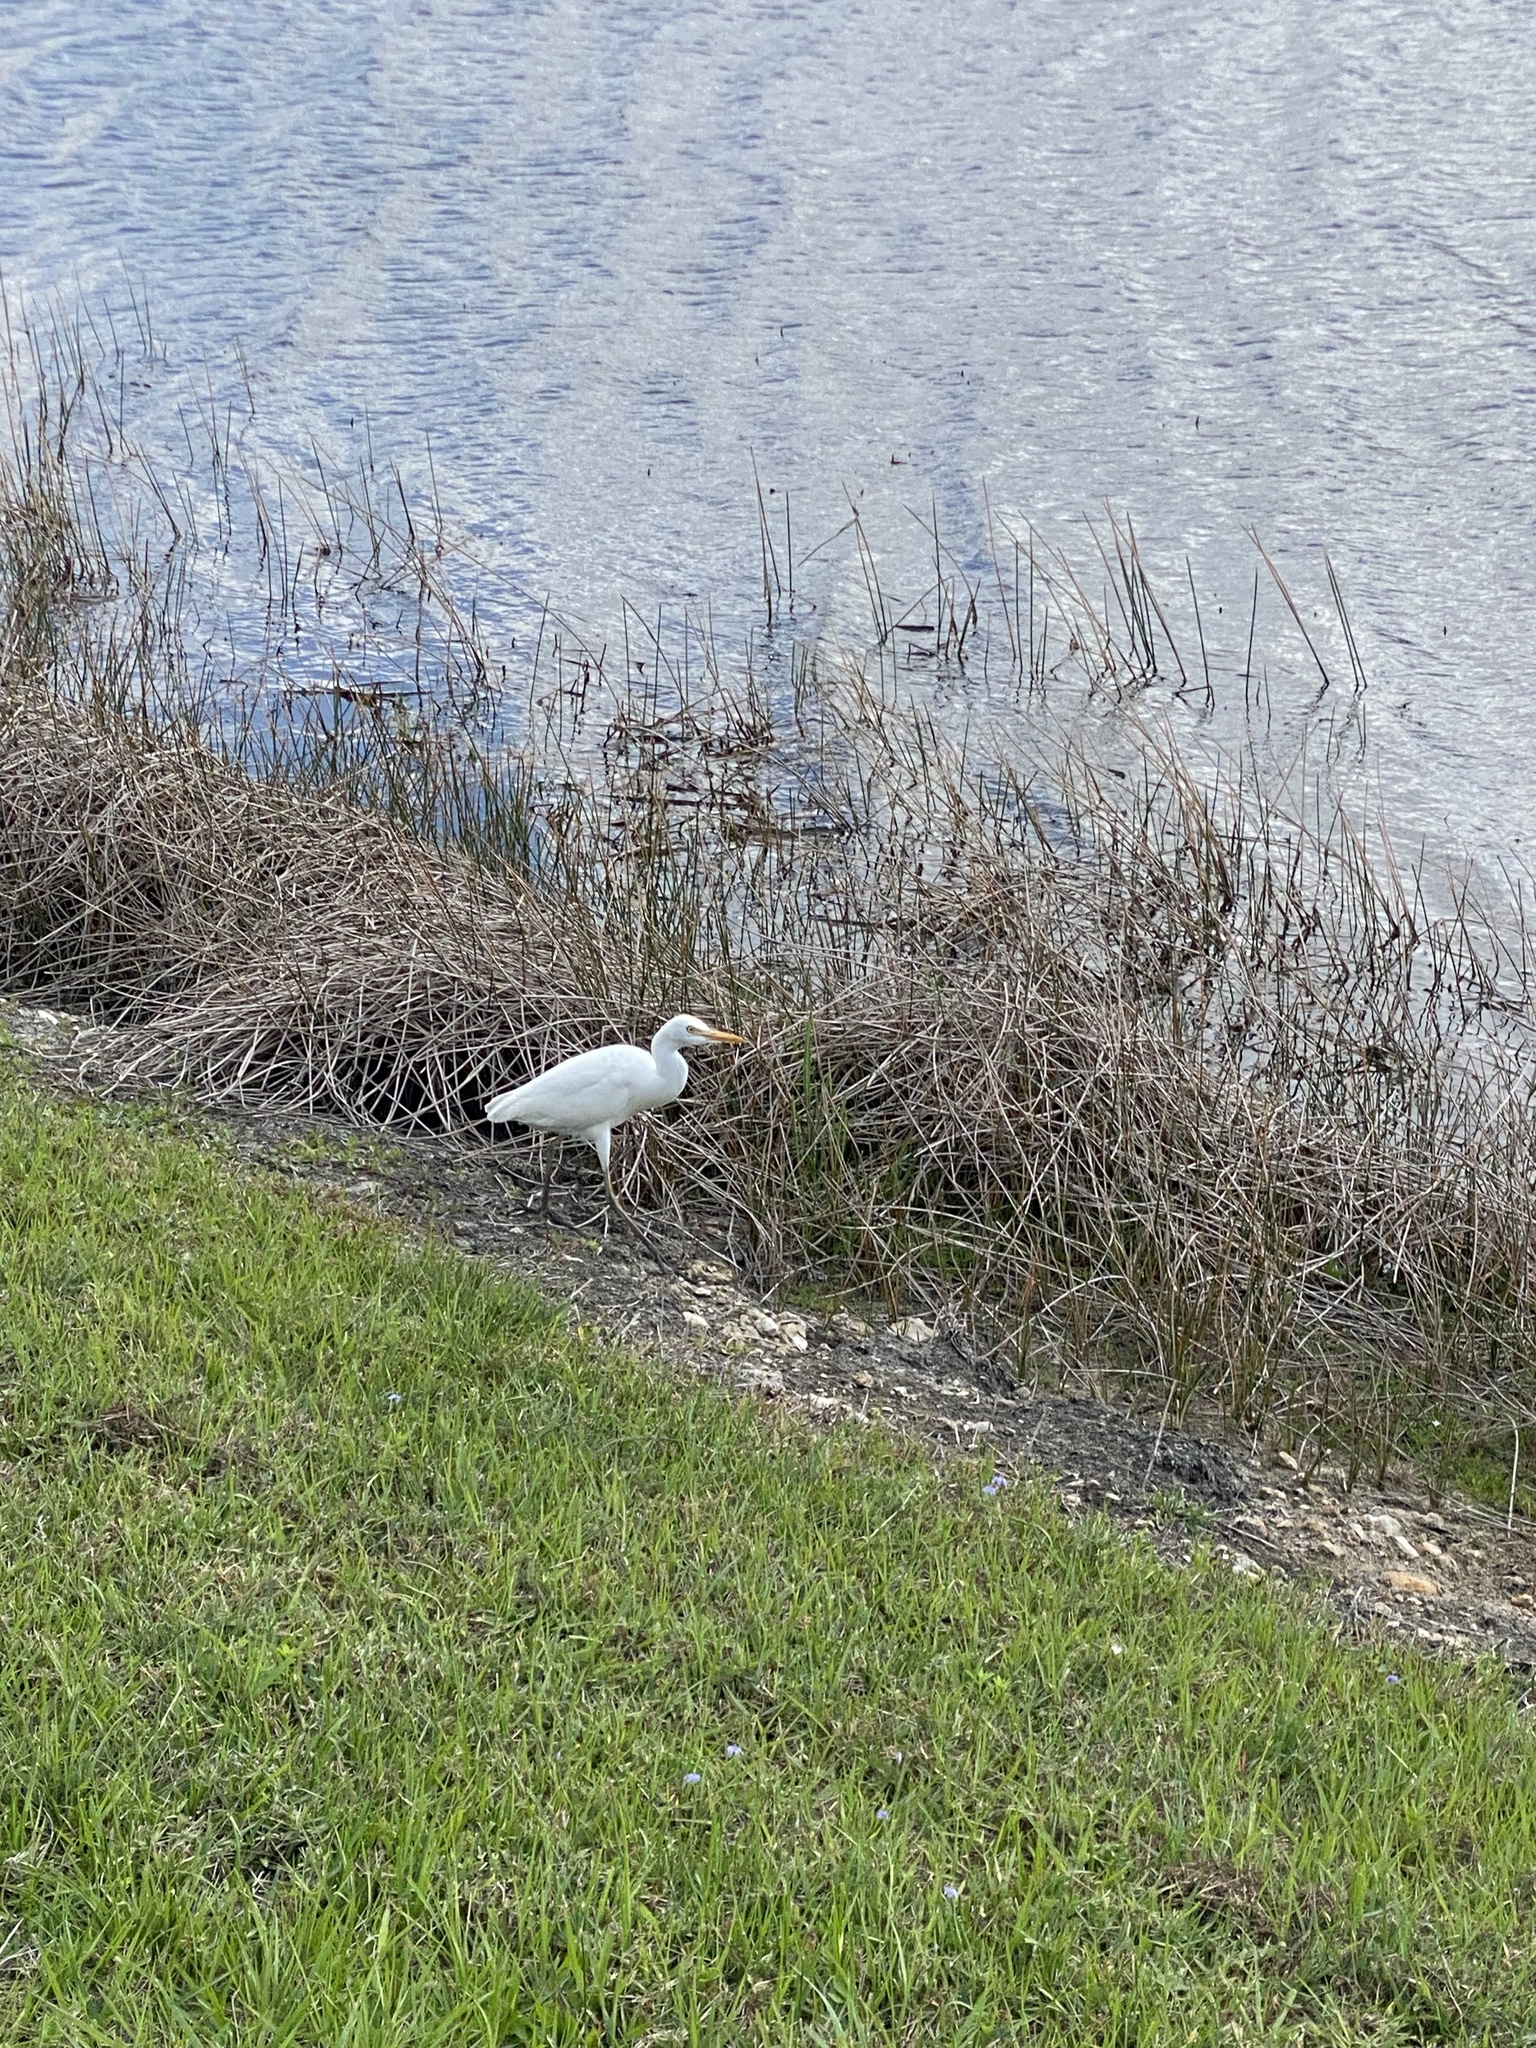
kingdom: Animalia
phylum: Chordata
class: Aves
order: Pelecaniformes
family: Ardeidae
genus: Bubulcus
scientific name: Bubulcus ibis
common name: Cattle egret
